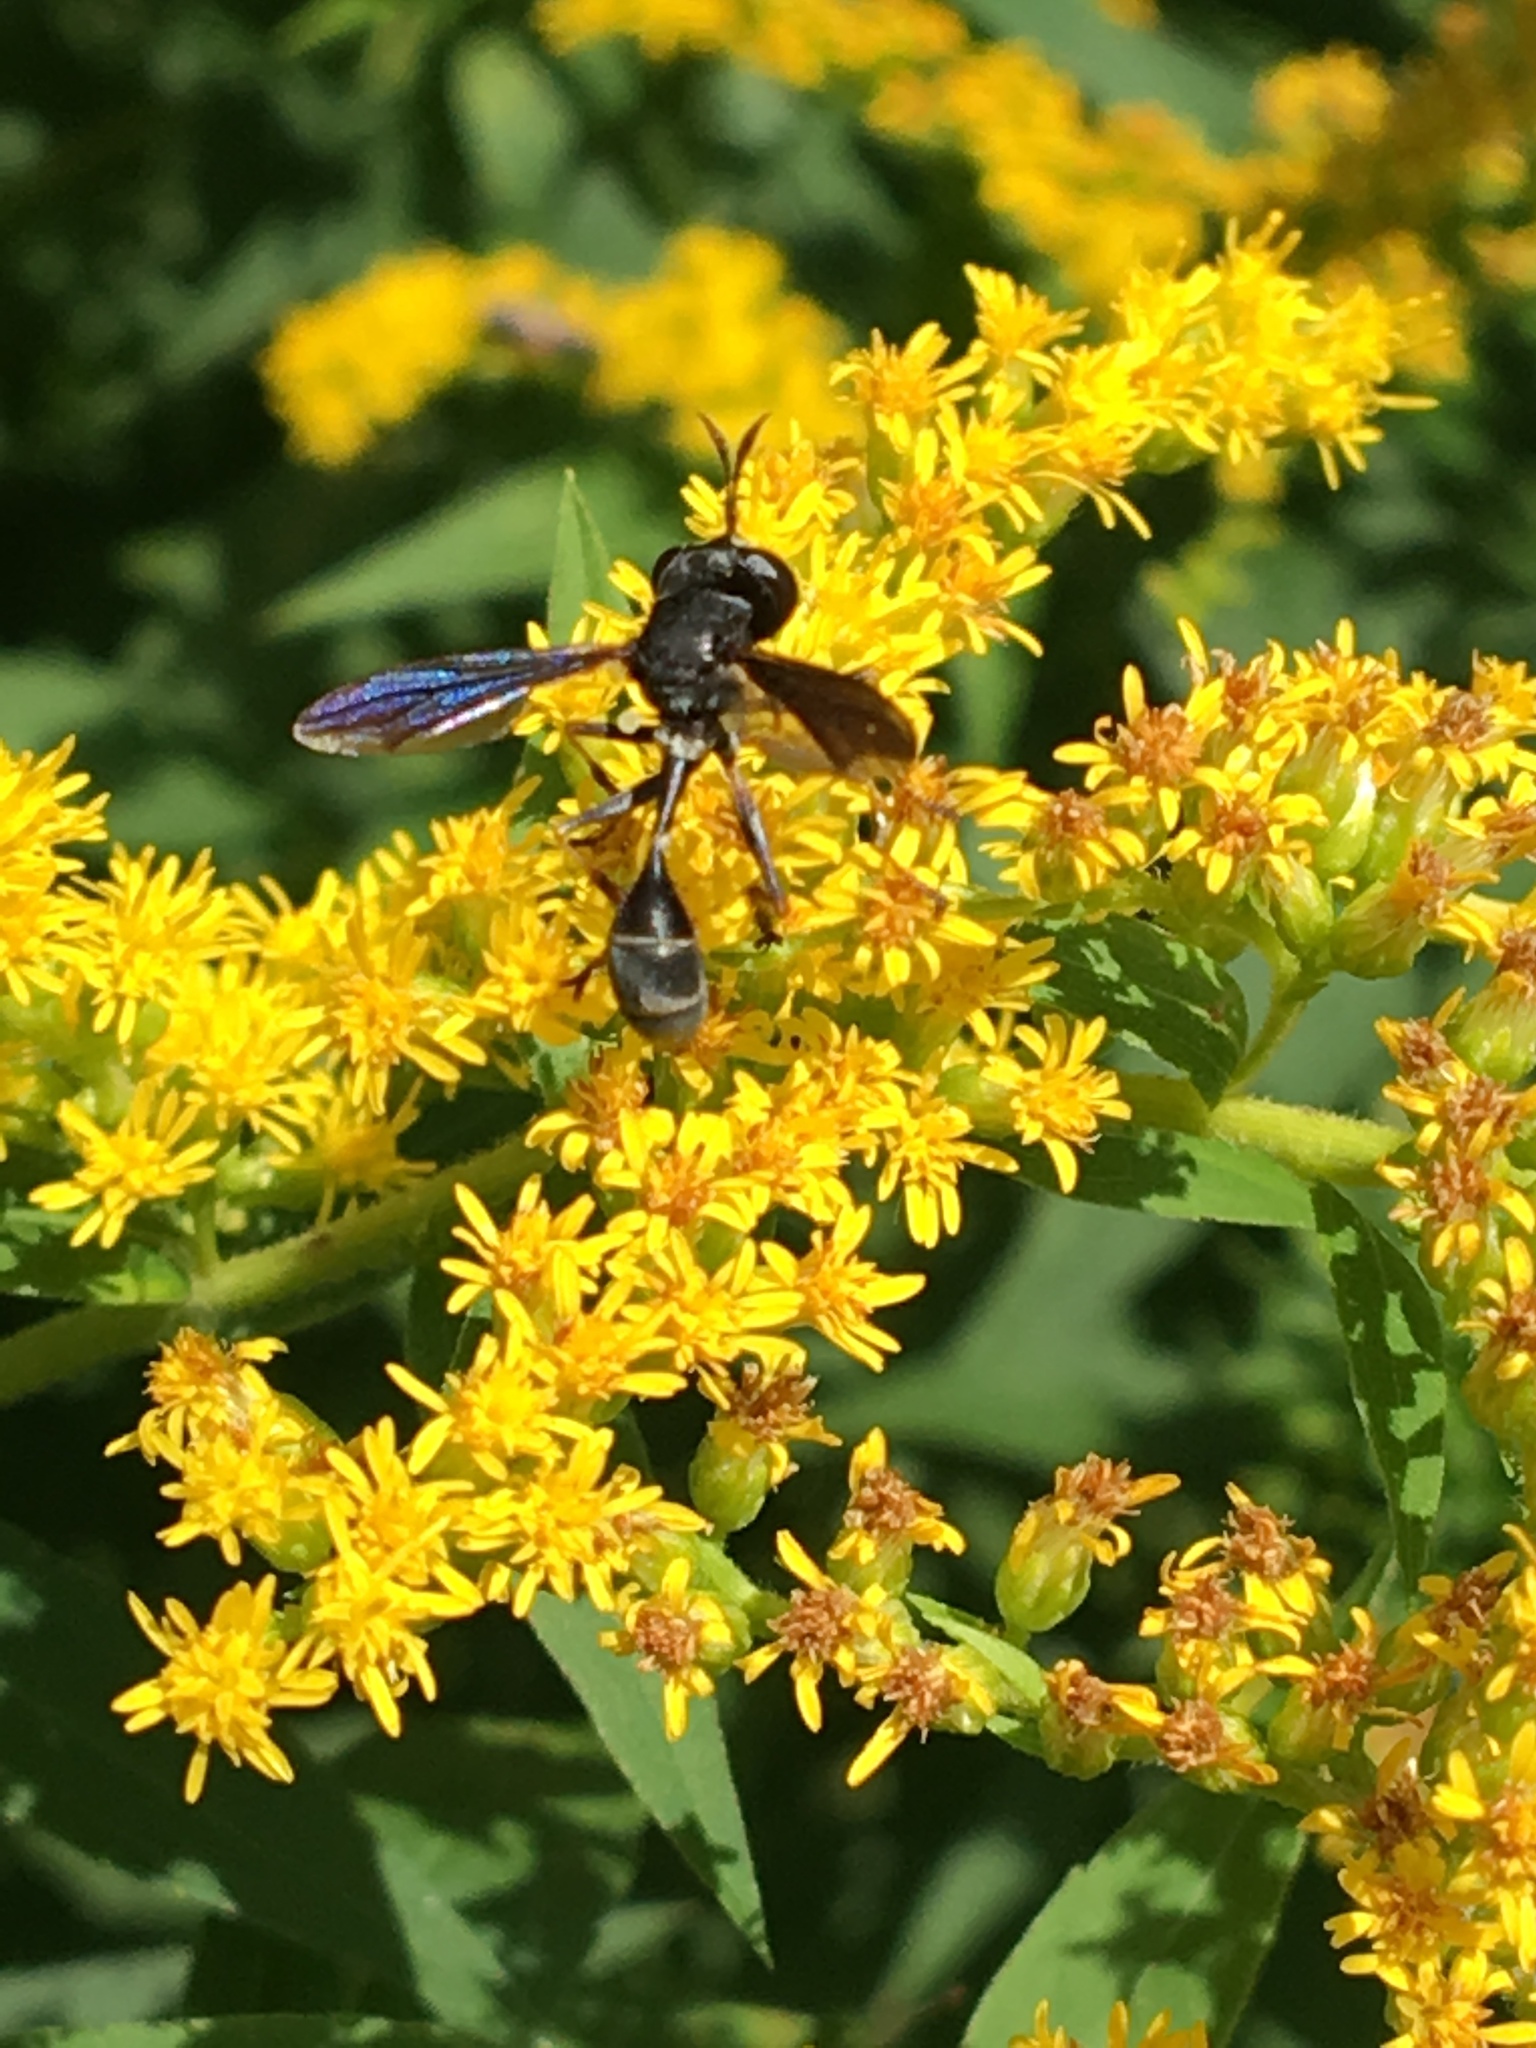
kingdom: Animalia
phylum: Arthropoda
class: Insecta
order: Diptera
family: Conopidae
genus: Physocephala
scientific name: Physocephala tibialis
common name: Common eastern physocephala
